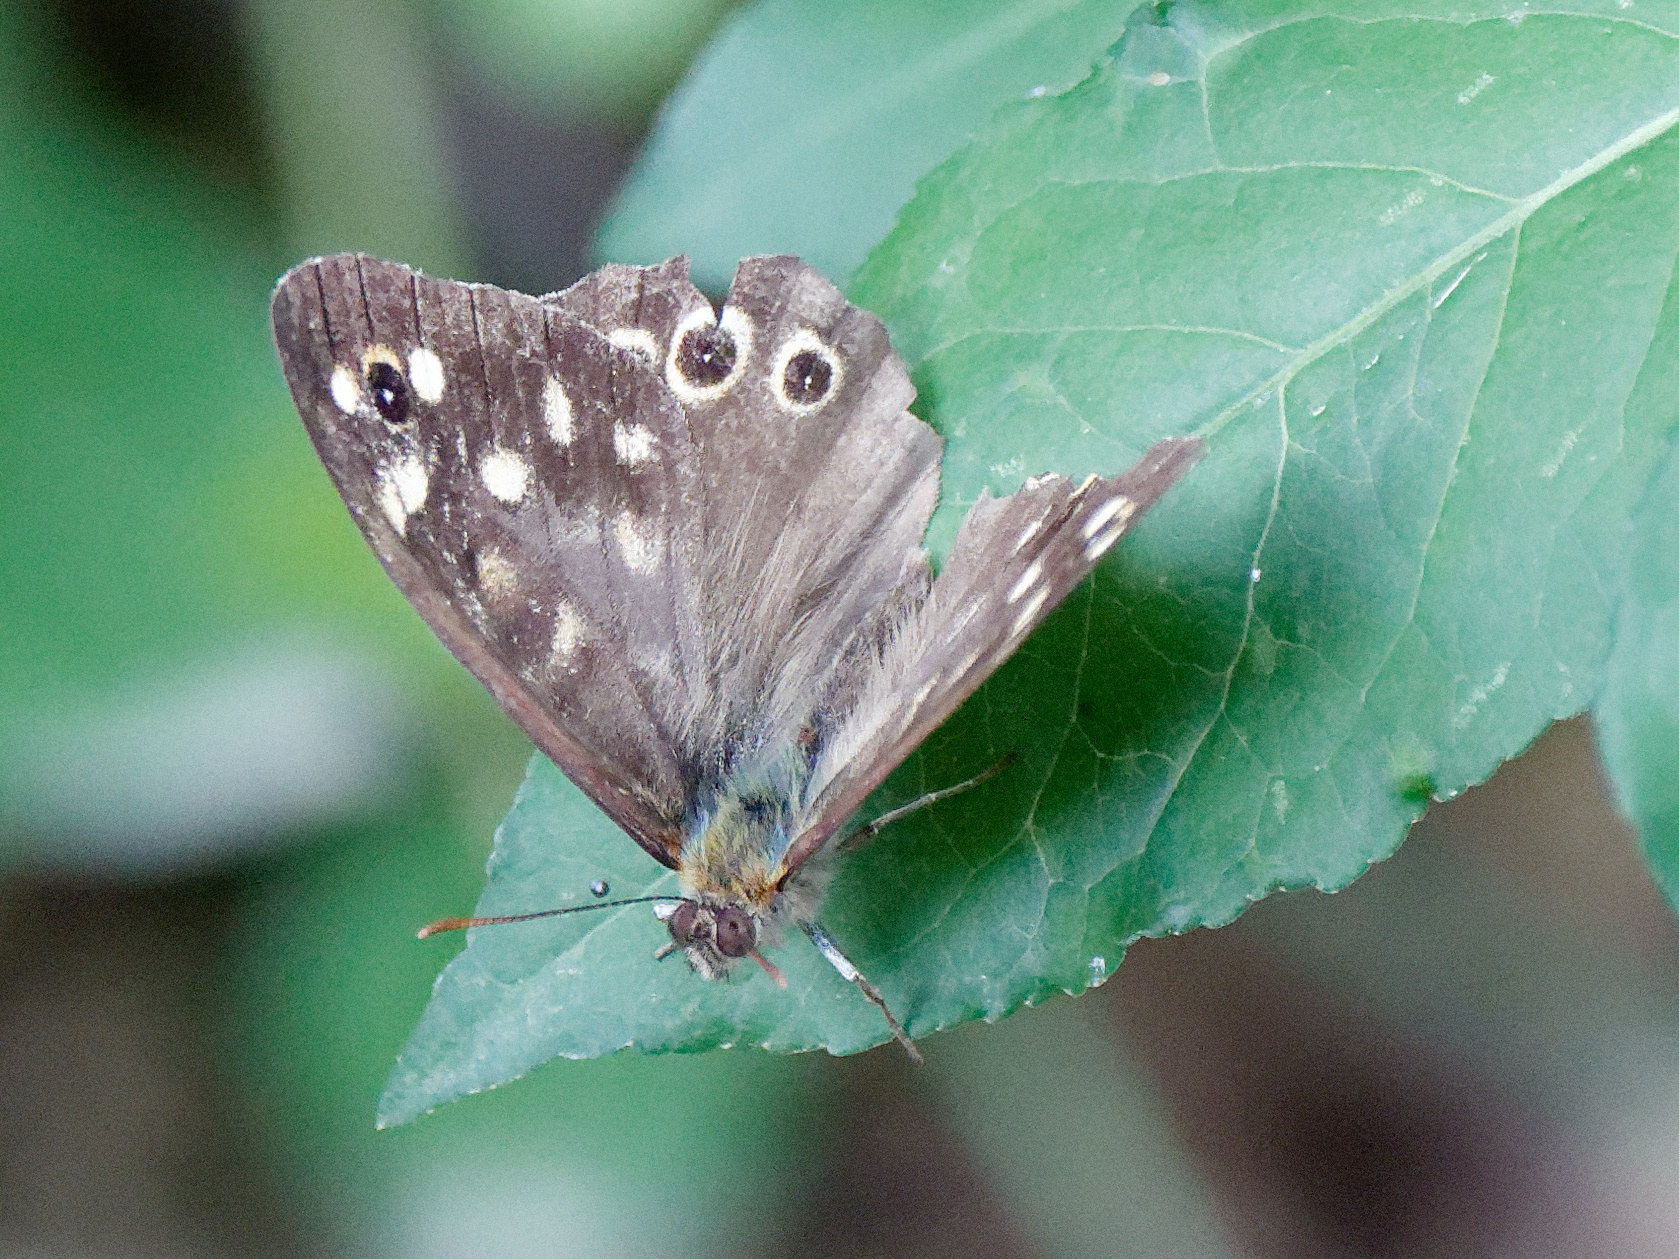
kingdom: Animalia
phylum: Arthropoda
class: Insecta
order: Lepidoptera
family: Nymphalidae
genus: Pararge
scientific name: Pararge aegeria
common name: Speckled wood
